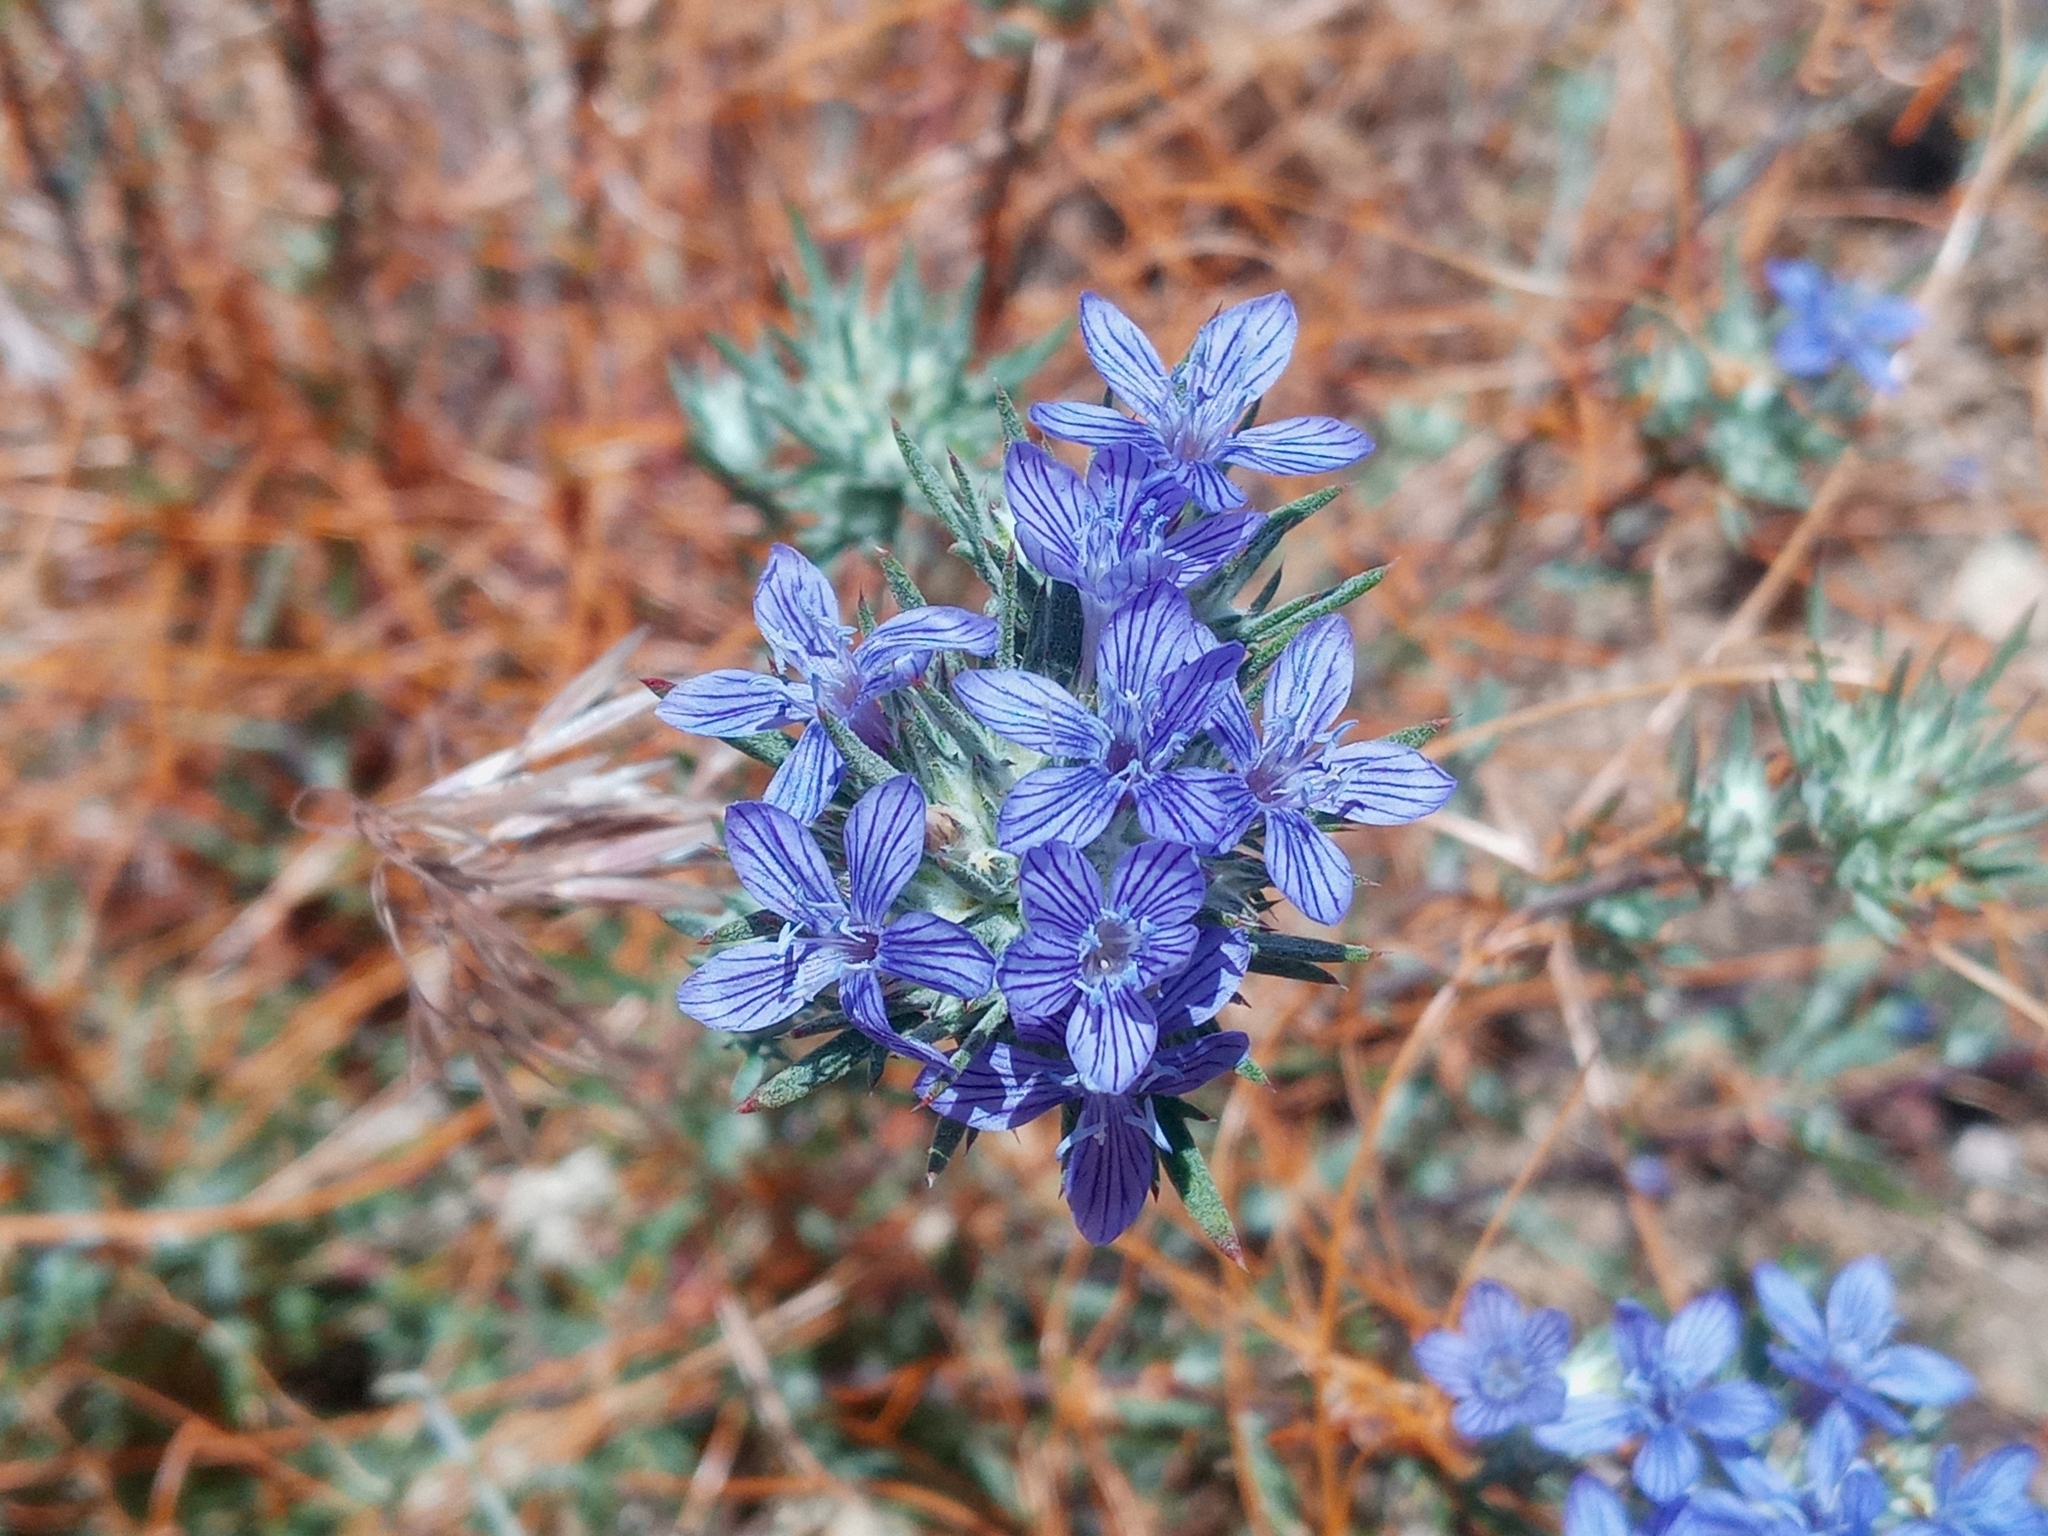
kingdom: Plantae
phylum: Tracheophyta
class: Magnoliopsida
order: Ericales
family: Polemoniaceae
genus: Eriastrum
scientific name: Eriastrum densifolium
